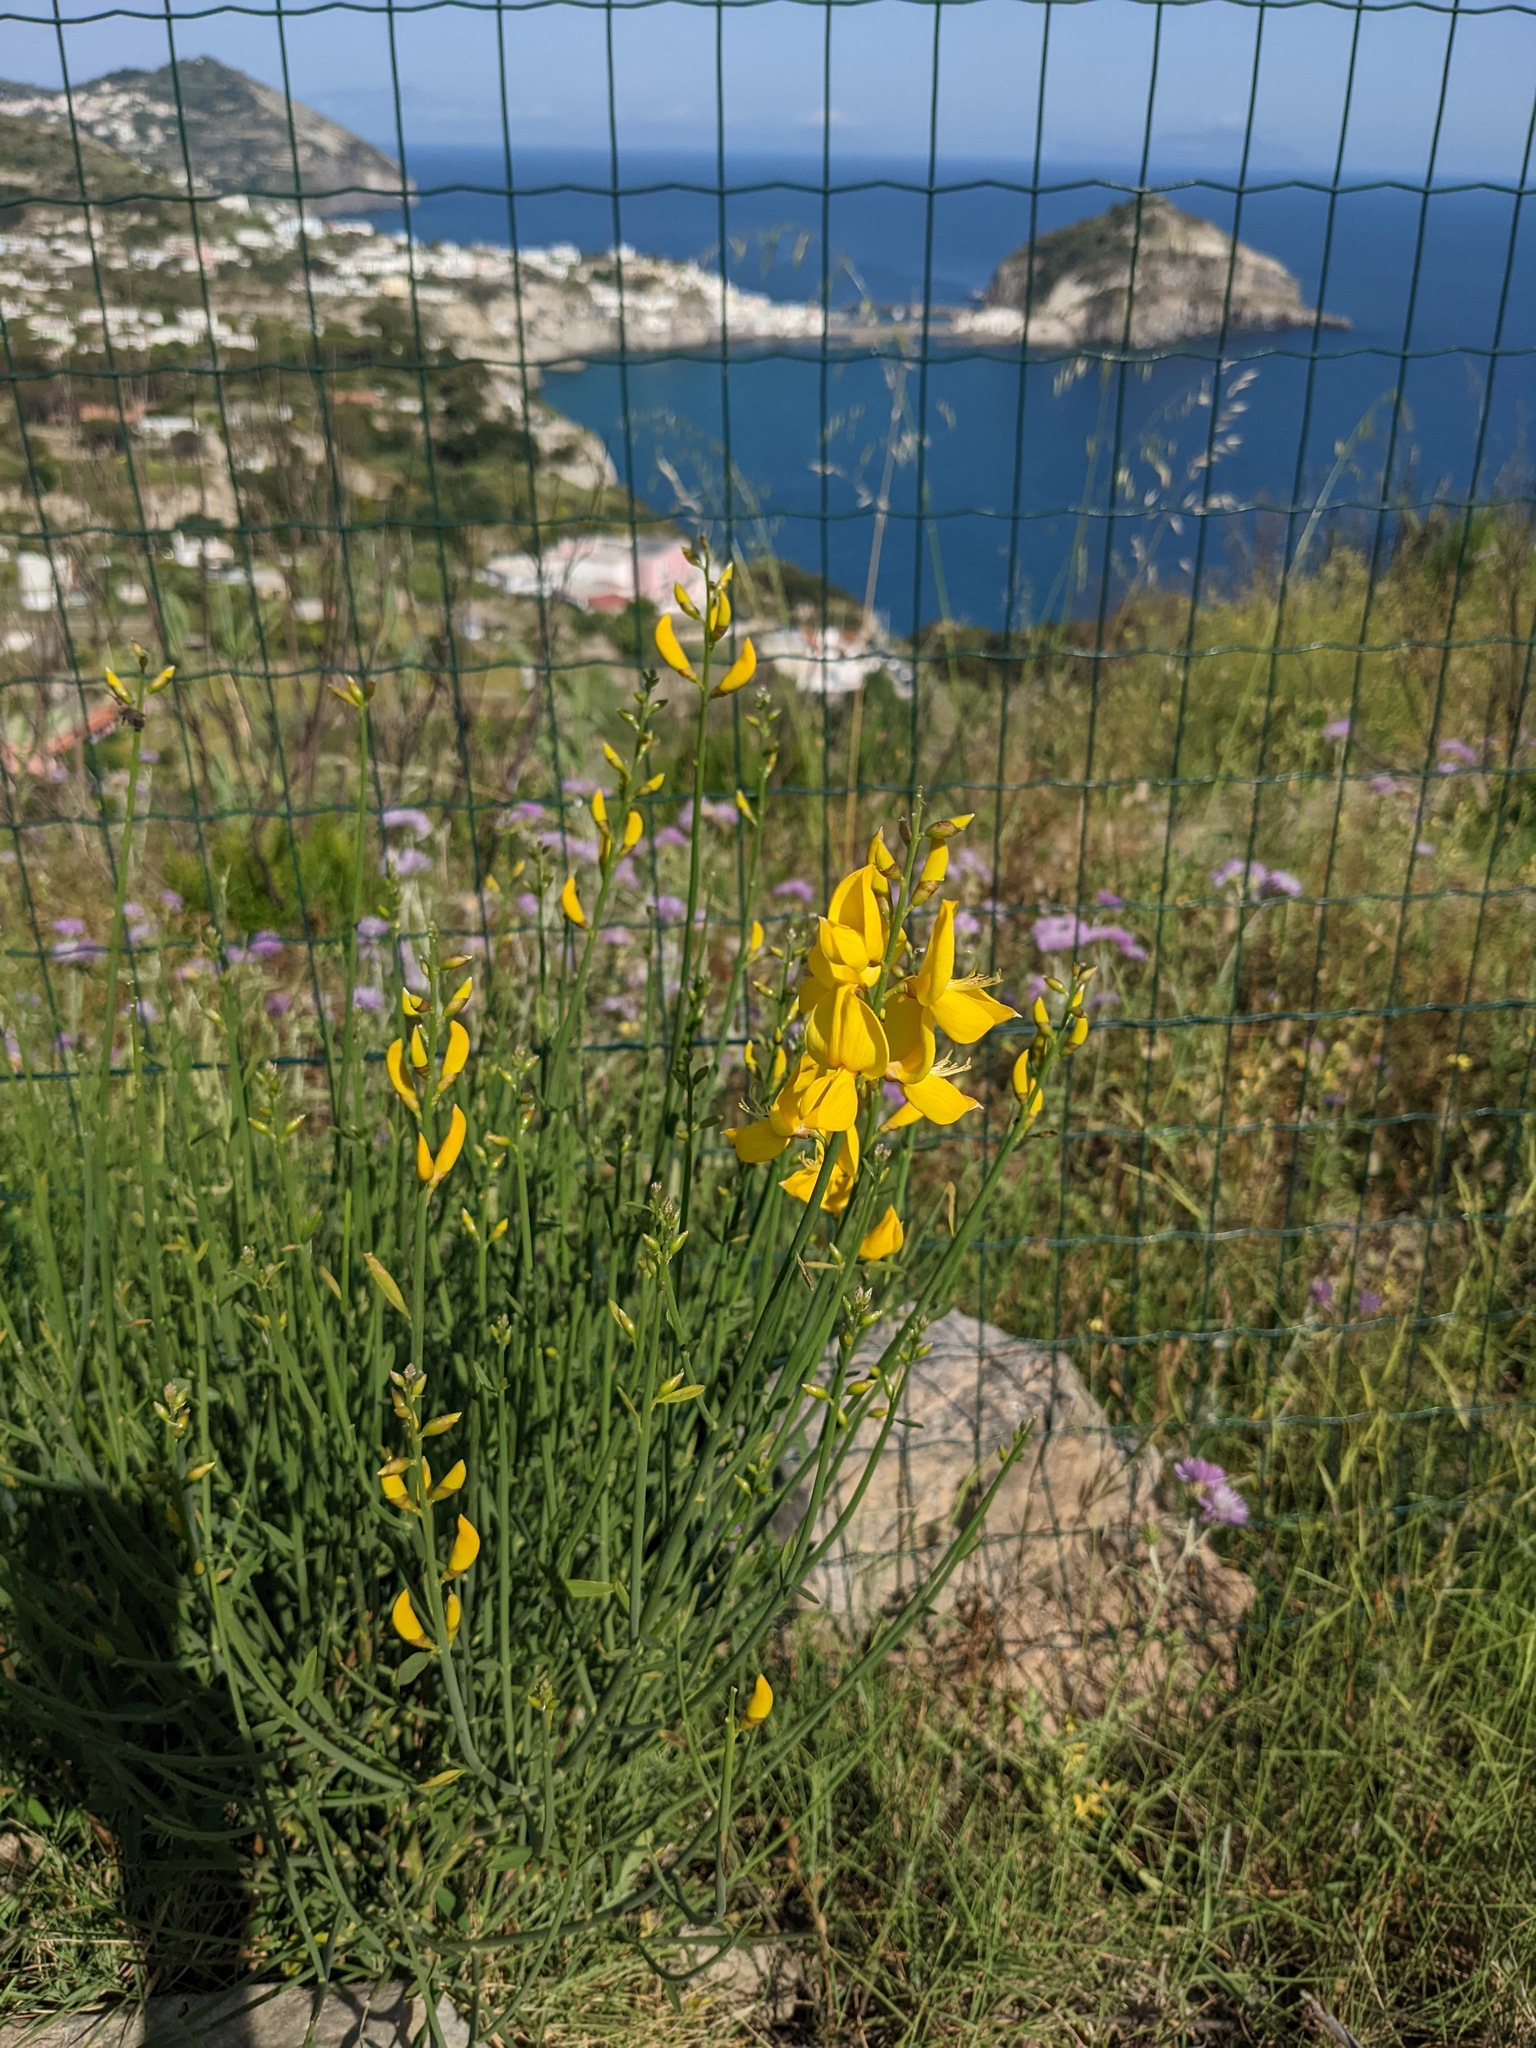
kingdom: Plantae
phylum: Tracheophyta
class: Magnoliopsida
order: Fabales
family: Fabaceae
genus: Spartium
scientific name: Spartium junceum
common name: Spanish broom
